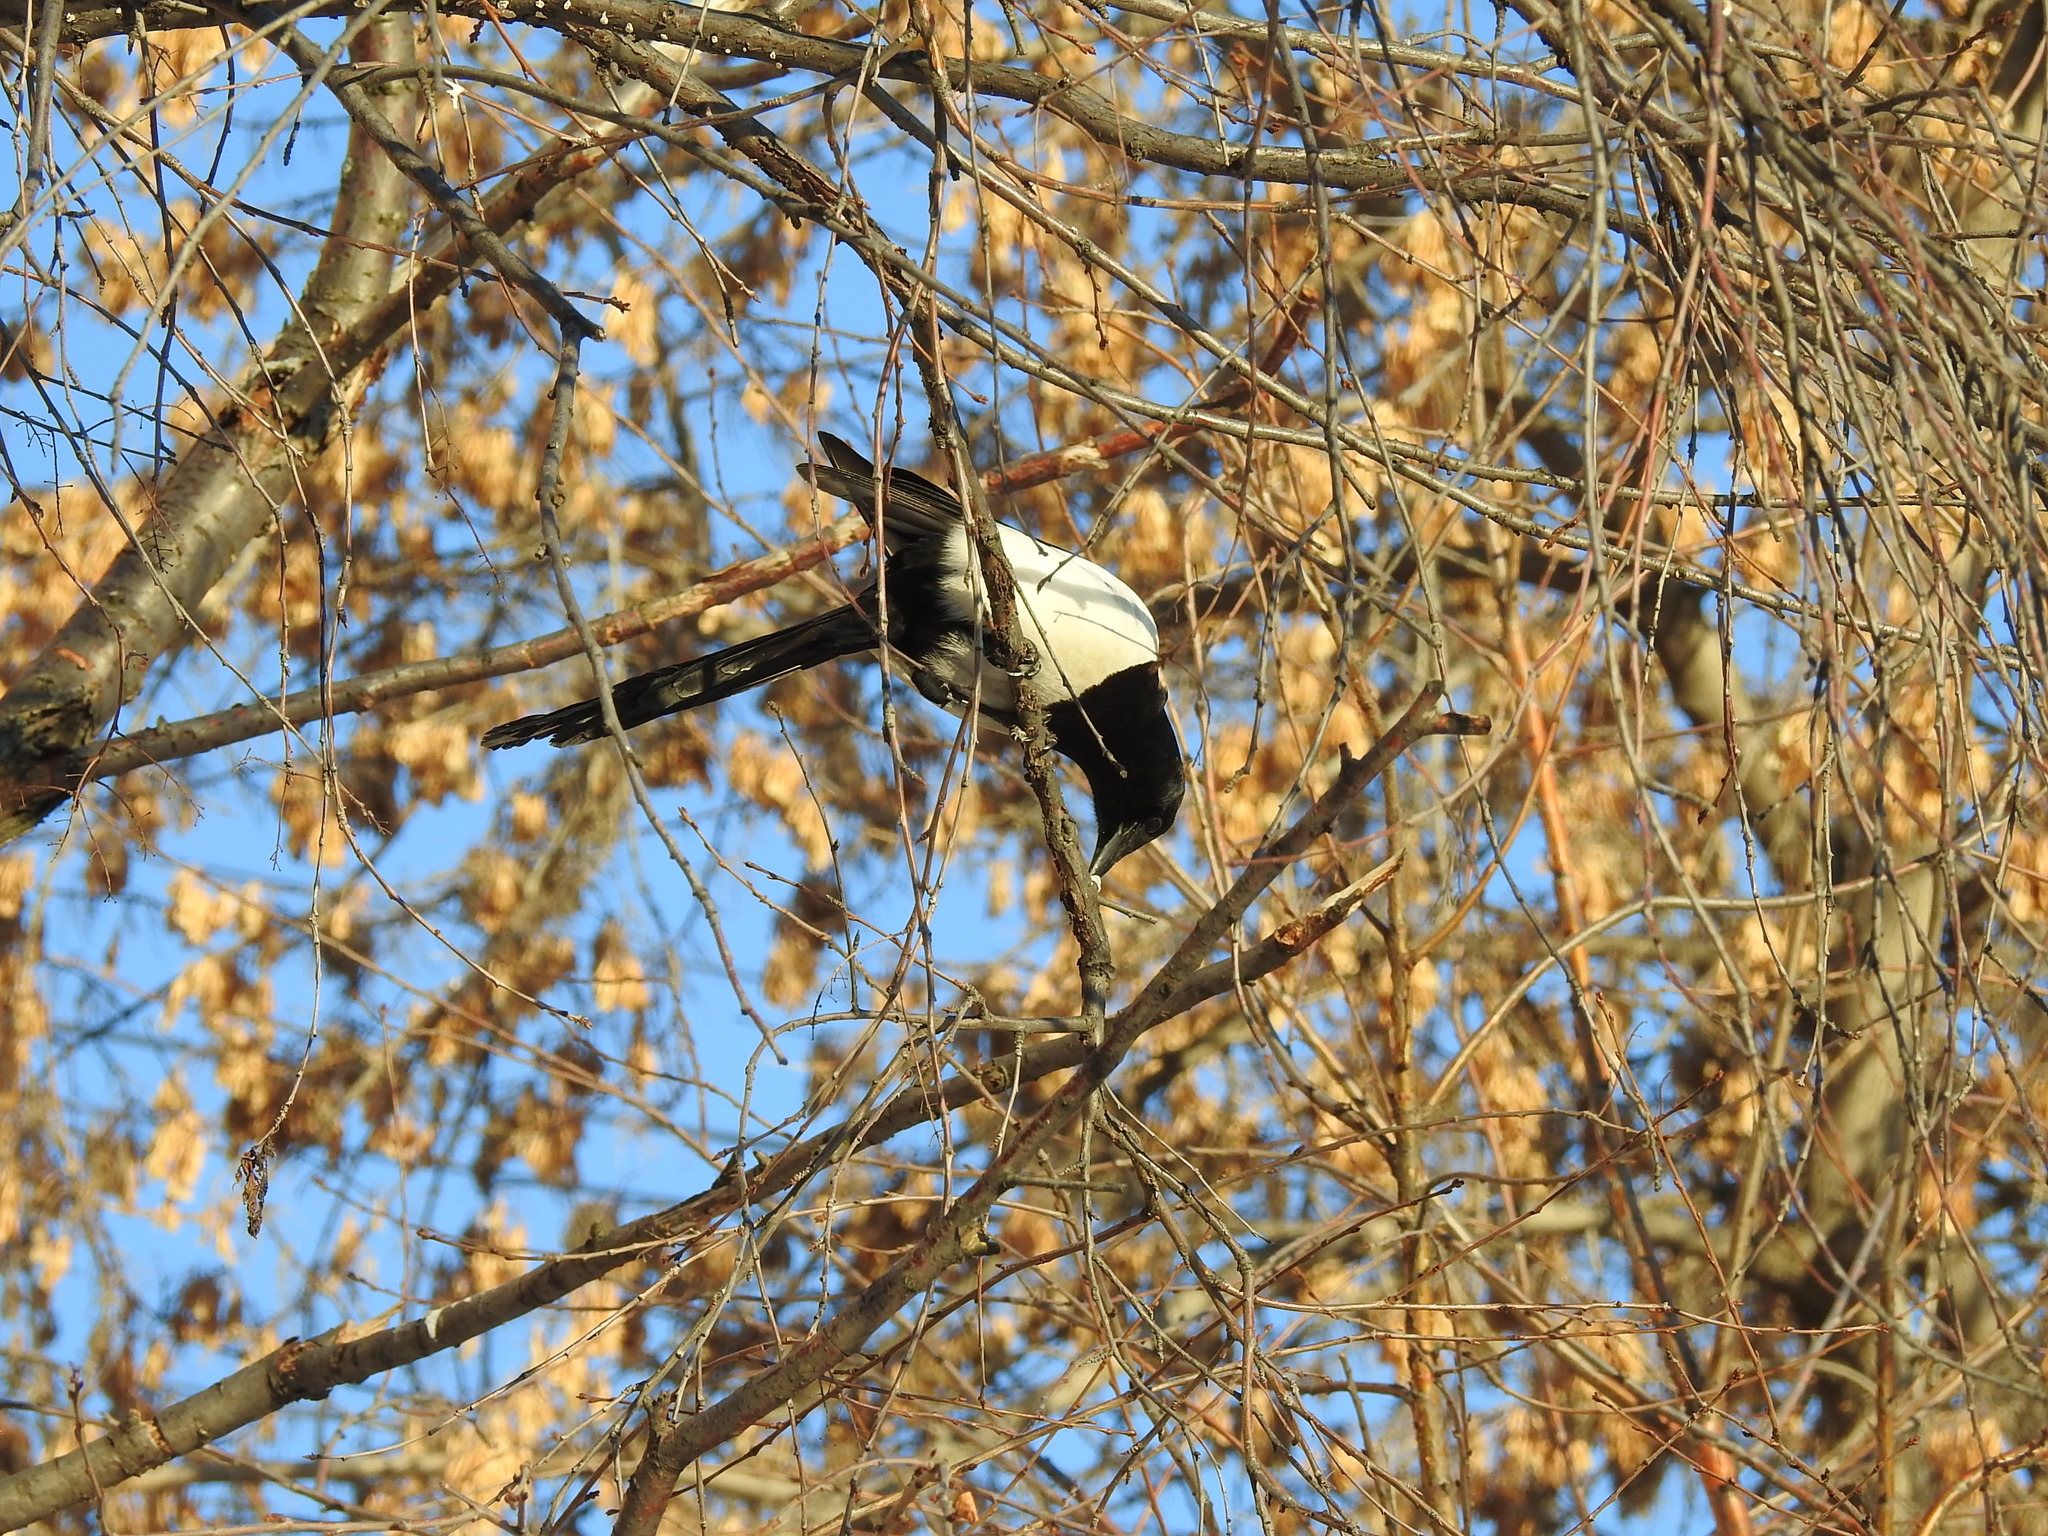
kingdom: Animalia
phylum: Chordata
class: Aves
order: Passeriformes
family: Corvidae
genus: Pica
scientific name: Pica pica
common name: Eurasian magpie
